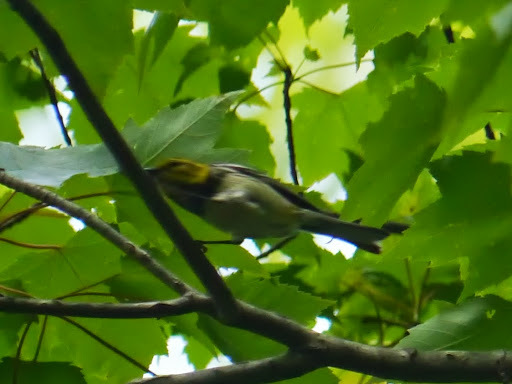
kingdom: Animalia
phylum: Chordata
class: Aves
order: Passeriformes
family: Parulidae
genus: Setophaga
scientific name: Setophaga virens
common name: Black-throated green warbler
